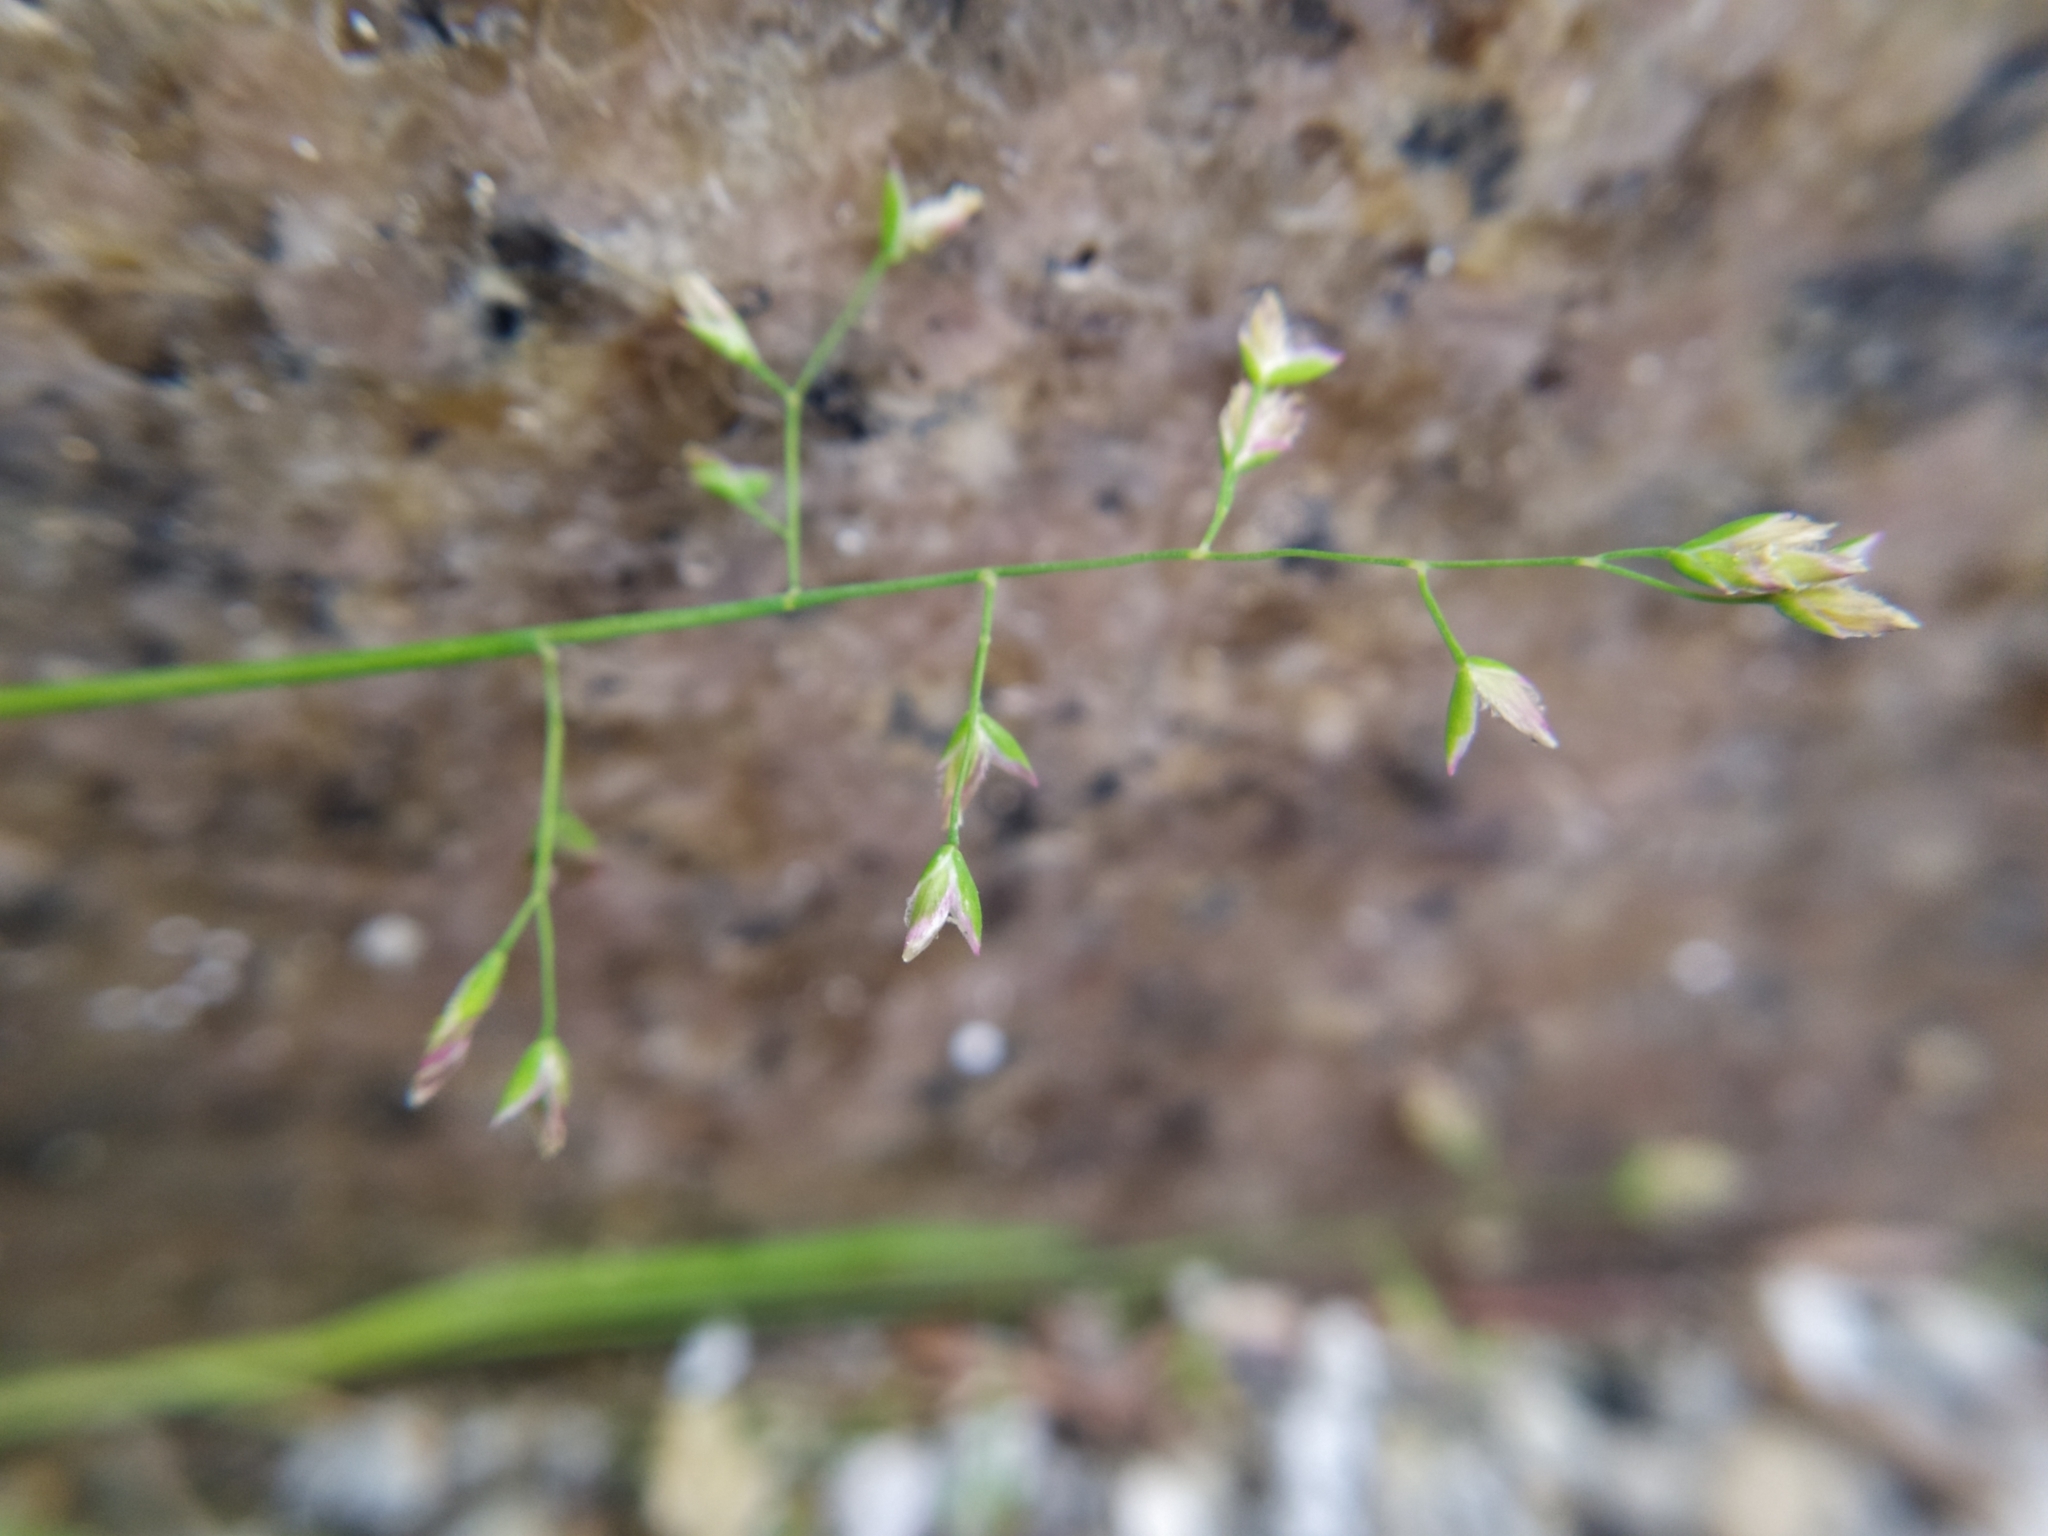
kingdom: Plantae
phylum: Tracheophyta
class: Liliopsida
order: Poales
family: Poaceae
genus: Poa
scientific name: Poa annua
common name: Annual bluegrass
